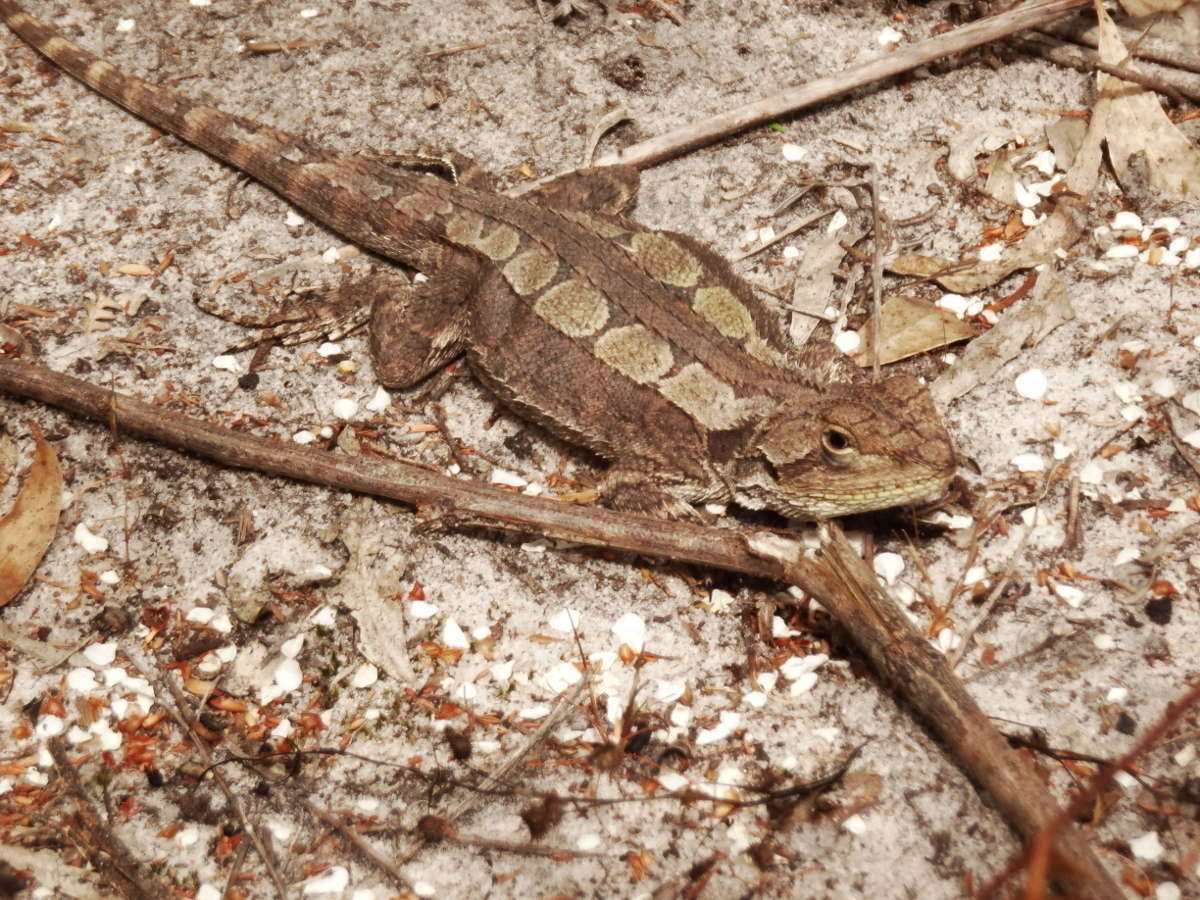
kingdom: Animalia
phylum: Chordata
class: Squamata
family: Agamidae
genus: Amphibolurus
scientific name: Amphibolurus muricatus
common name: Jacky lizard
